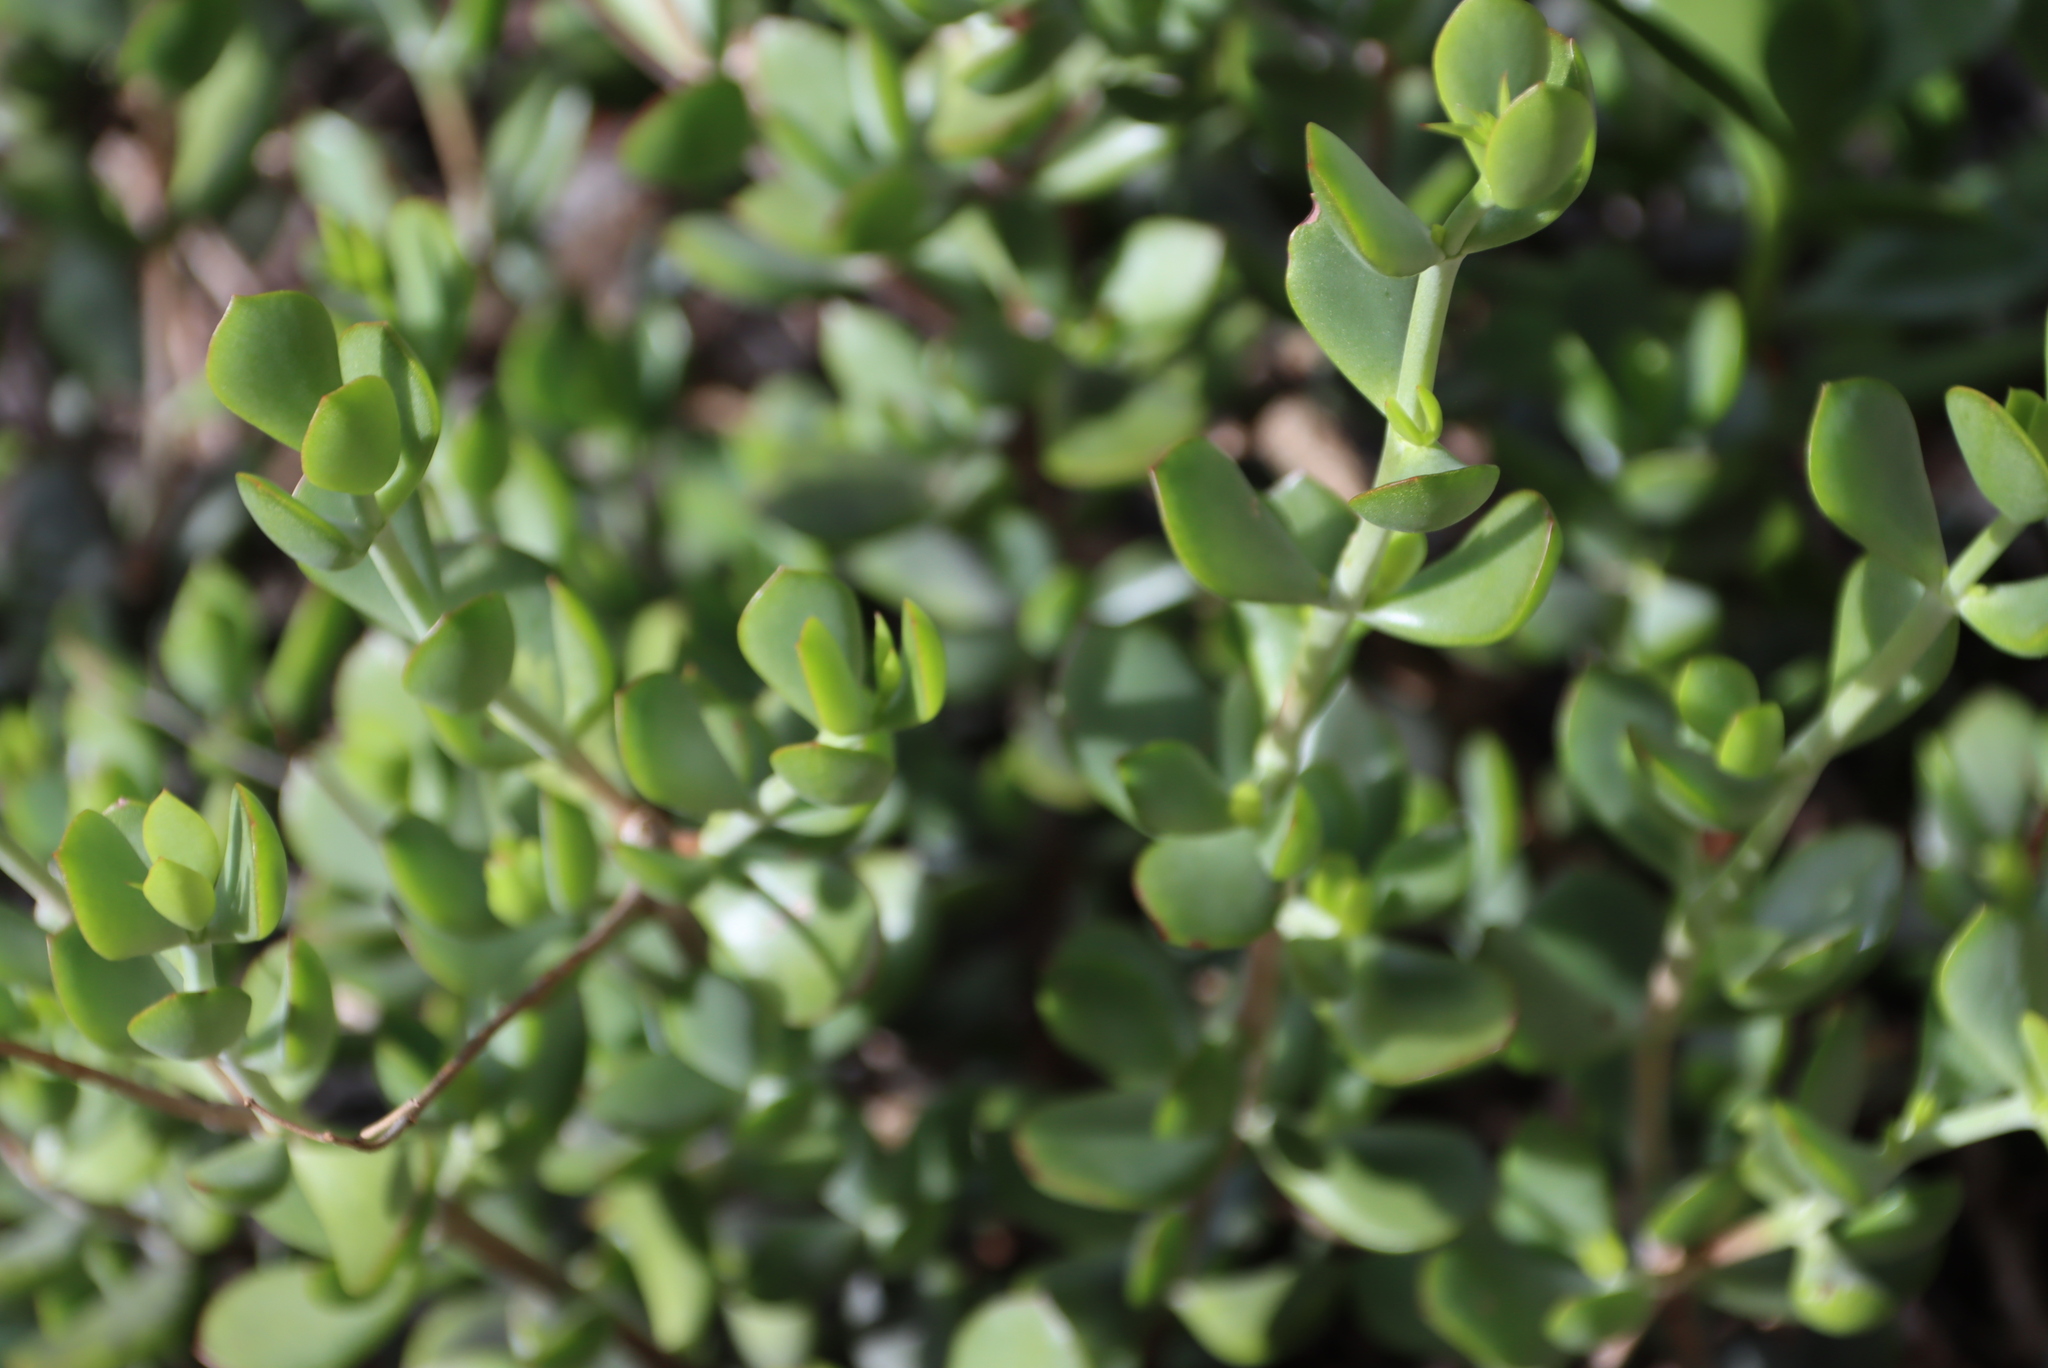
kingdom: Plantae
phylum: Tracheophyta
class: Magnoliopsida
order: Saxifragales
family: Crassulaceae
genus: Cotyledon
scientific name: Cotyledon woodii
